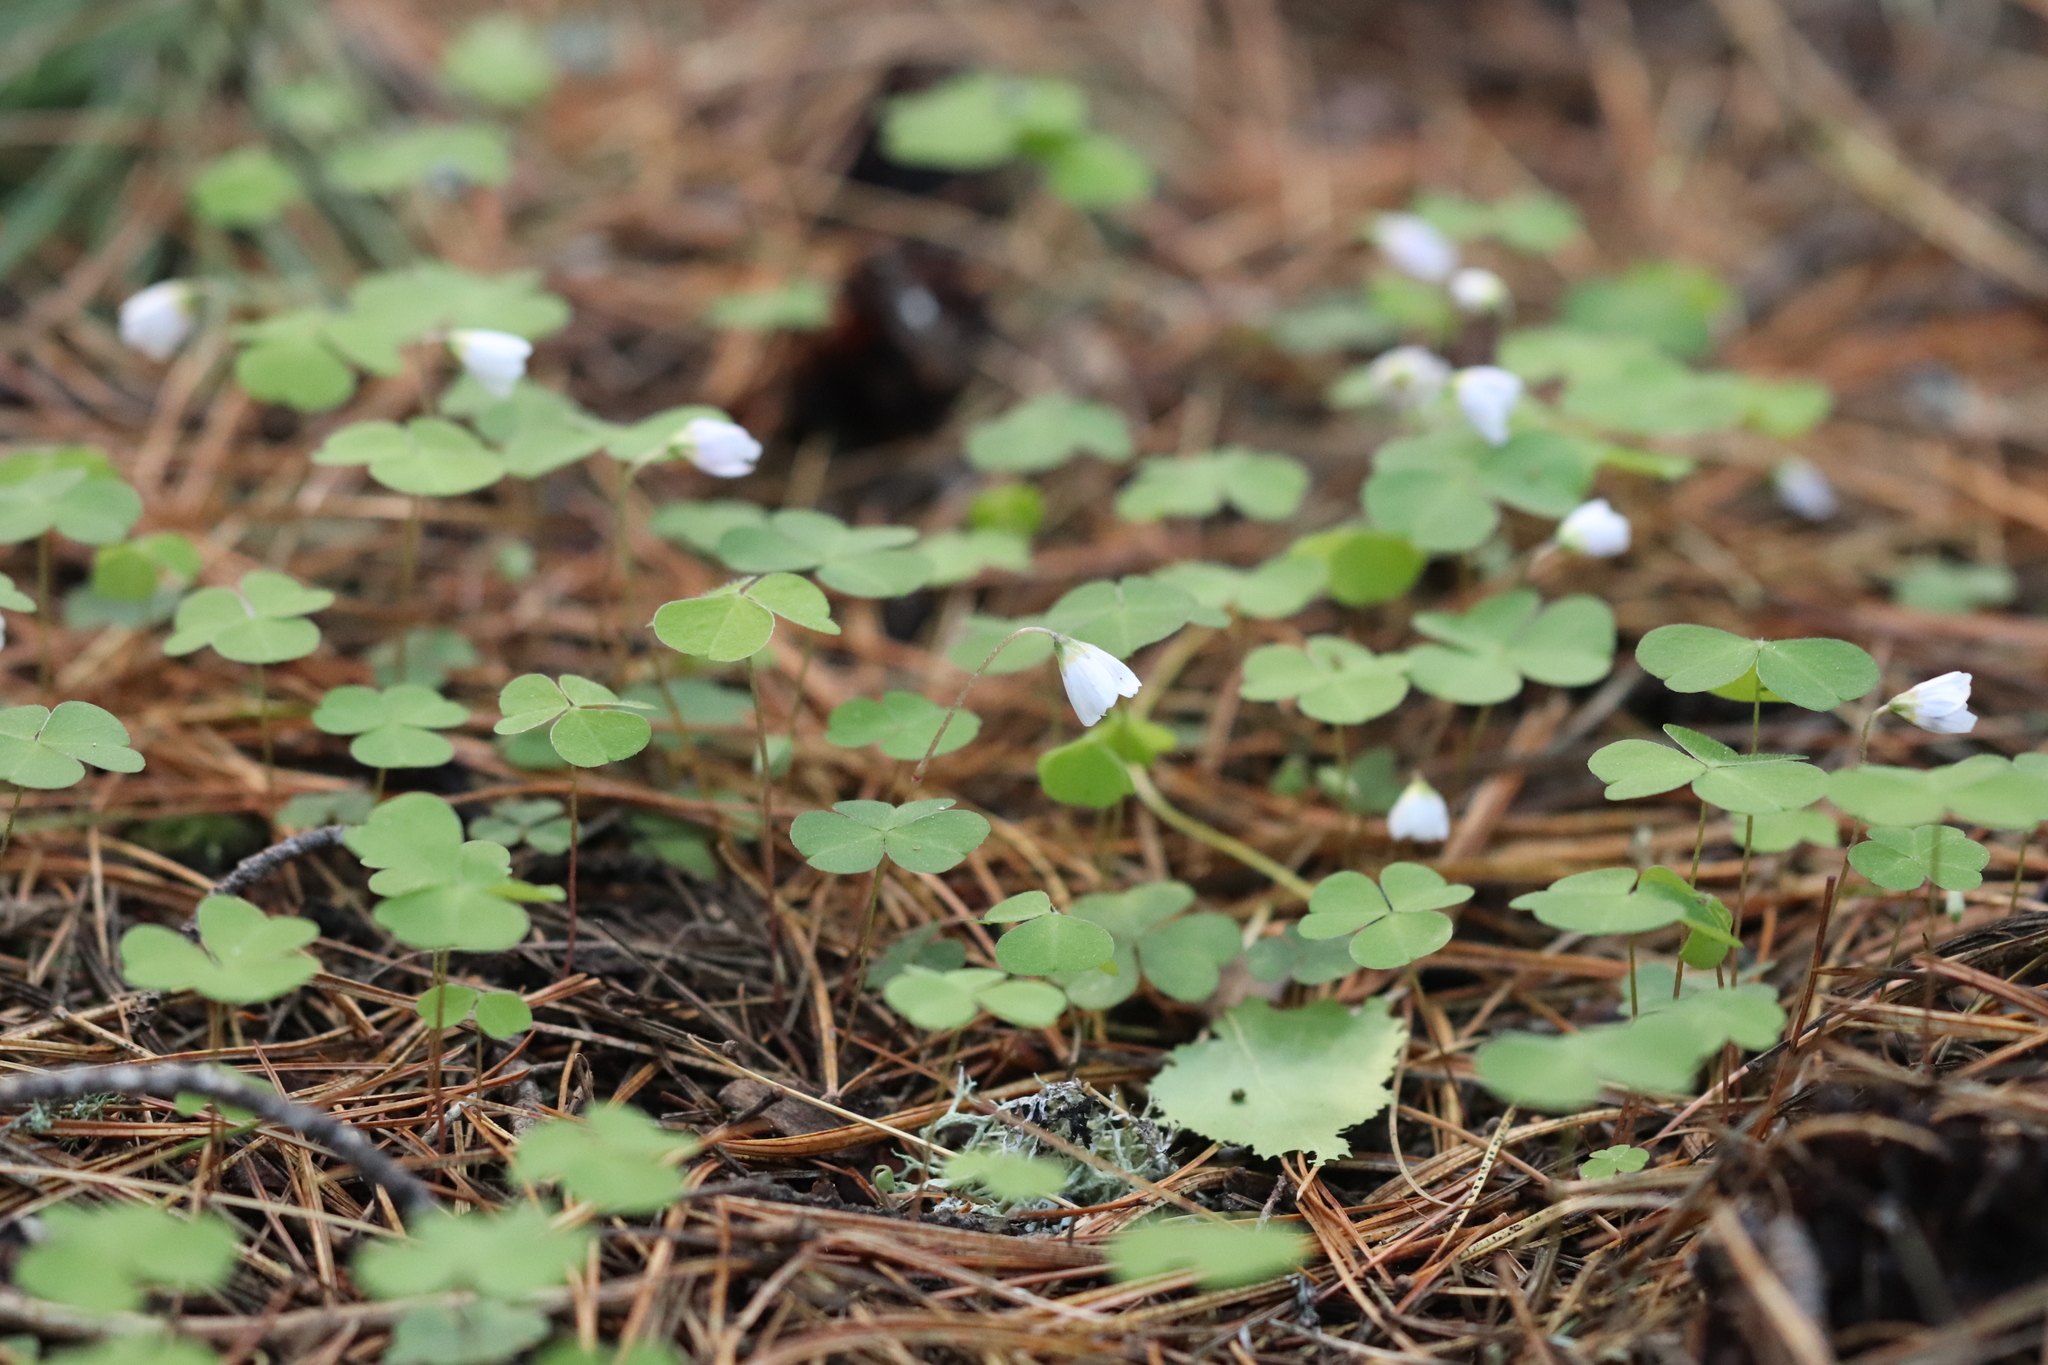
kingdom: Plantae
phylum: Tracheophyta
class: Magnoliopsida
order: Oxalidales
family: Oxalidaceae
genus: Oxalis
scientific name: Oxalis acetosella
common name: Wood-sorrel
